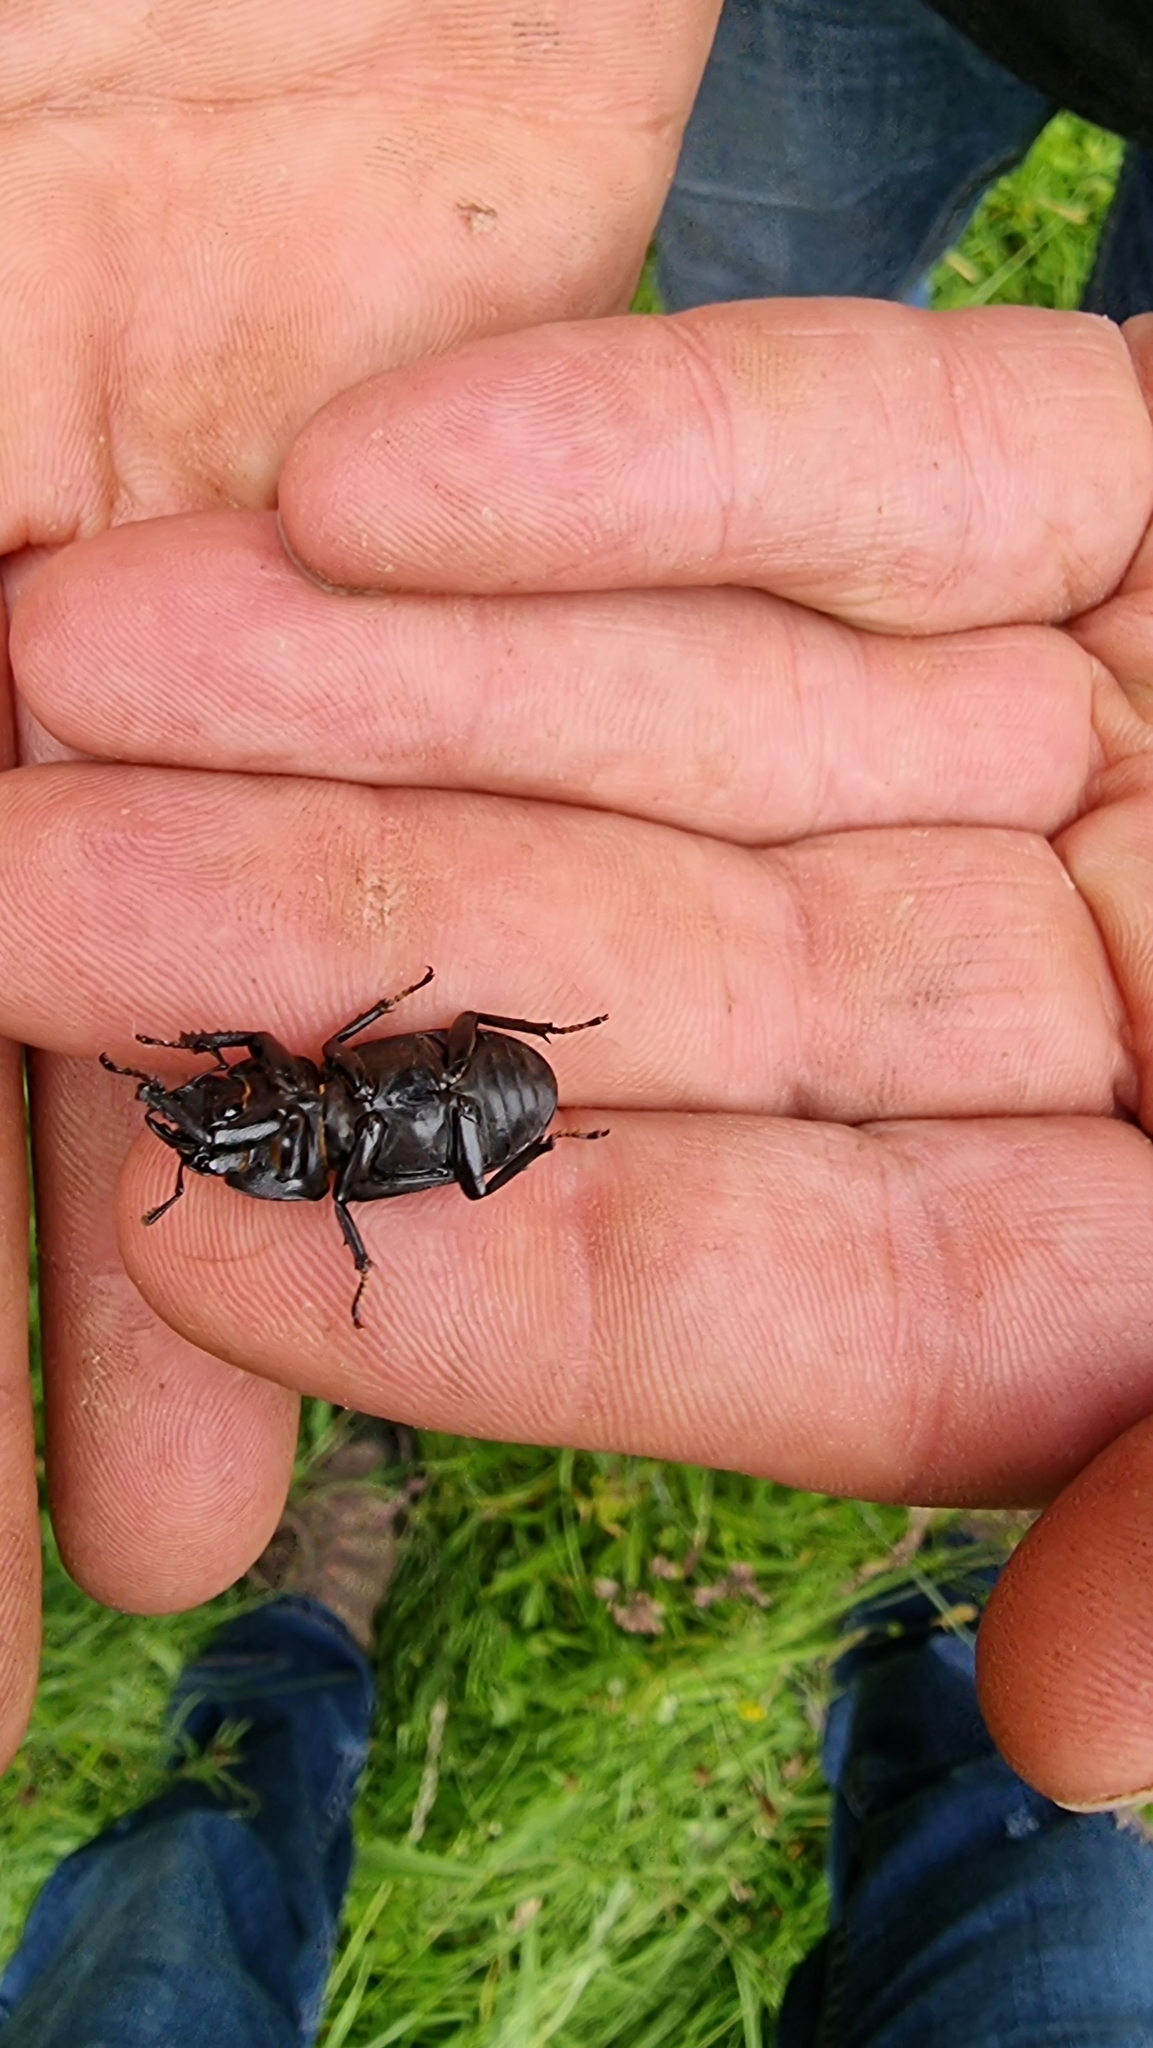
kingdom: Animalia
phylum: Arthropoda
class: Insecta
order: Coleoptera
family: Lucanidae
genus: Dorcus
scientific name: Dorcus parallelipipedus
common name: Lesser stag beetle
